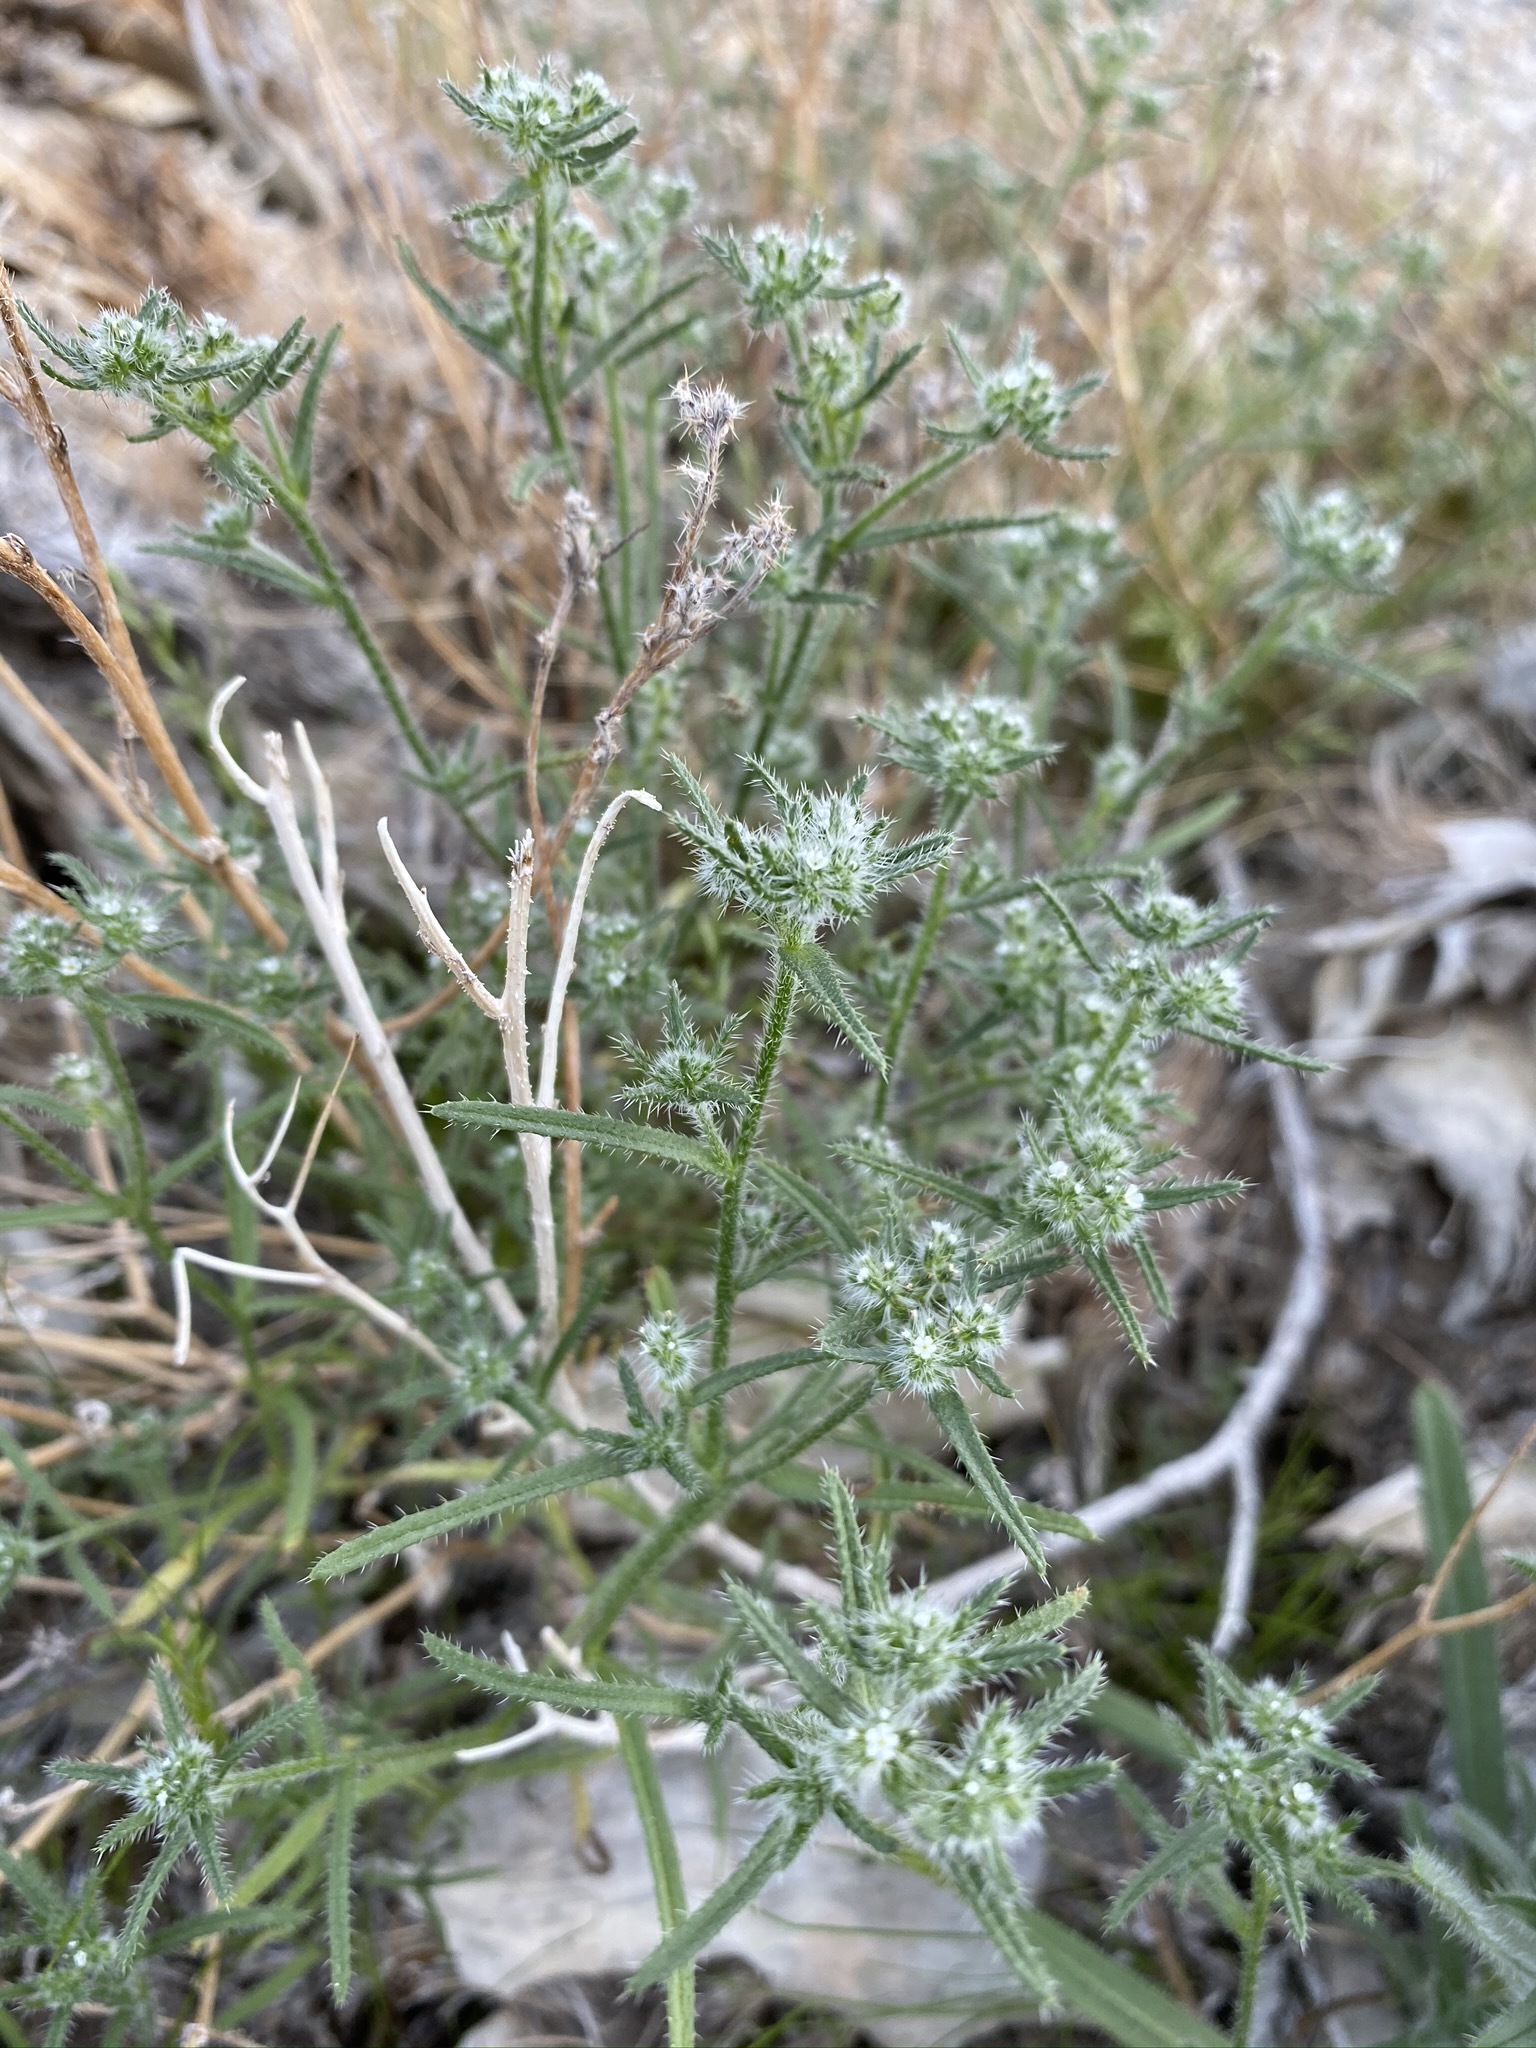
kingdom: Plantae
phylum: Tracheophyta
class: Magnoliopsida
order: Boraginales
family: Boraginaceae
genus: Cryptantha
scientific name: Cryptantha maritima
